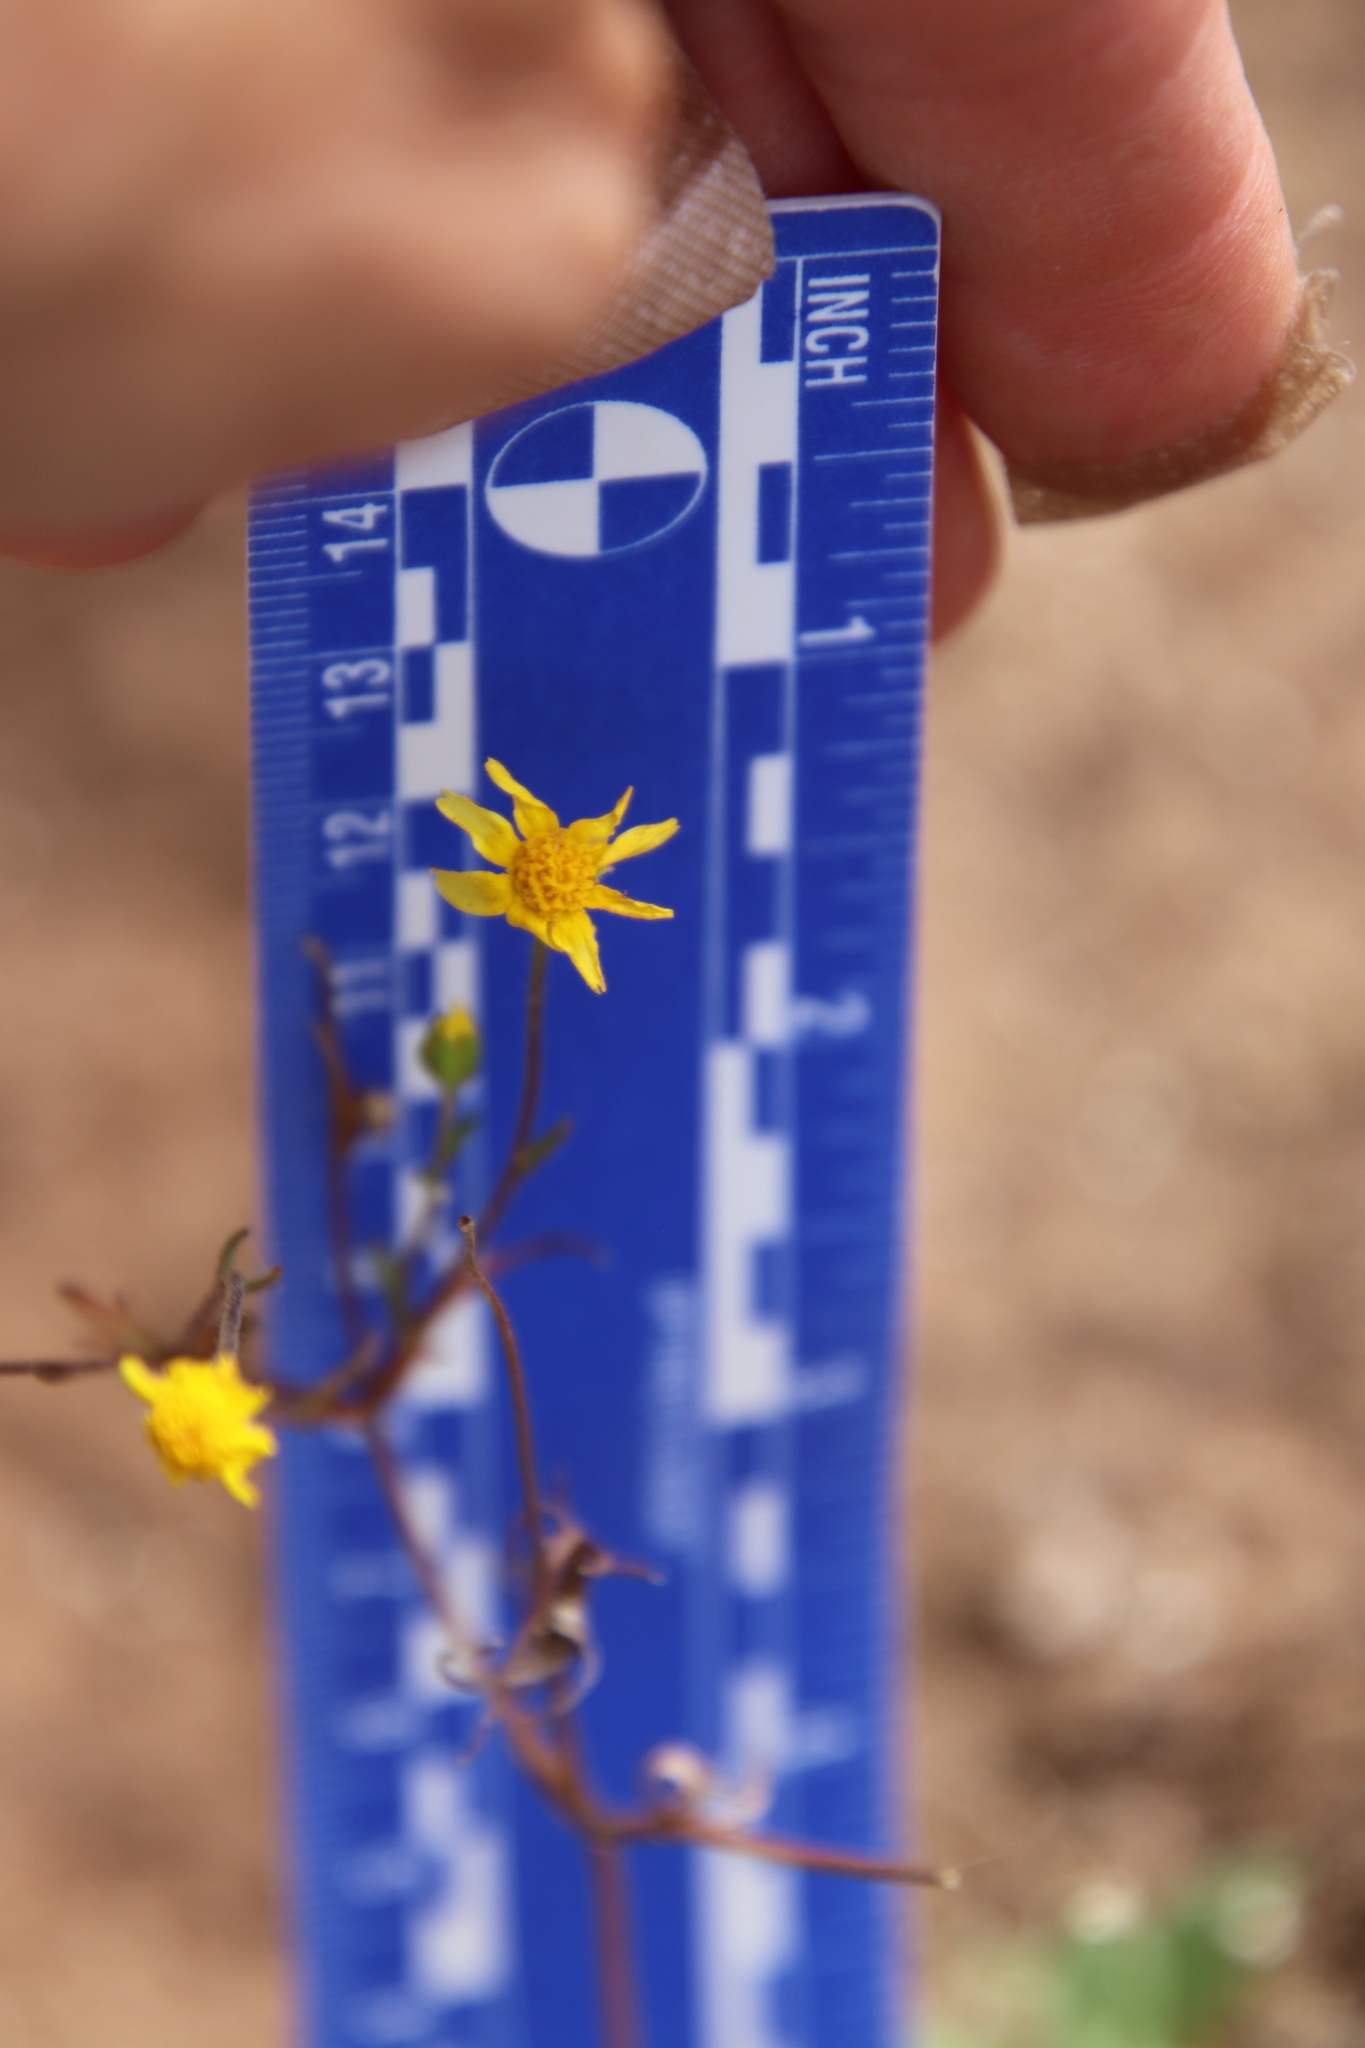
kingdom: Plantae
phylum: Tracheophyta
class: Magnoliopsida
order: Asterales
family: Asteraceae
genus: Lasthenia
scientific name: Lasthenia coronaria
